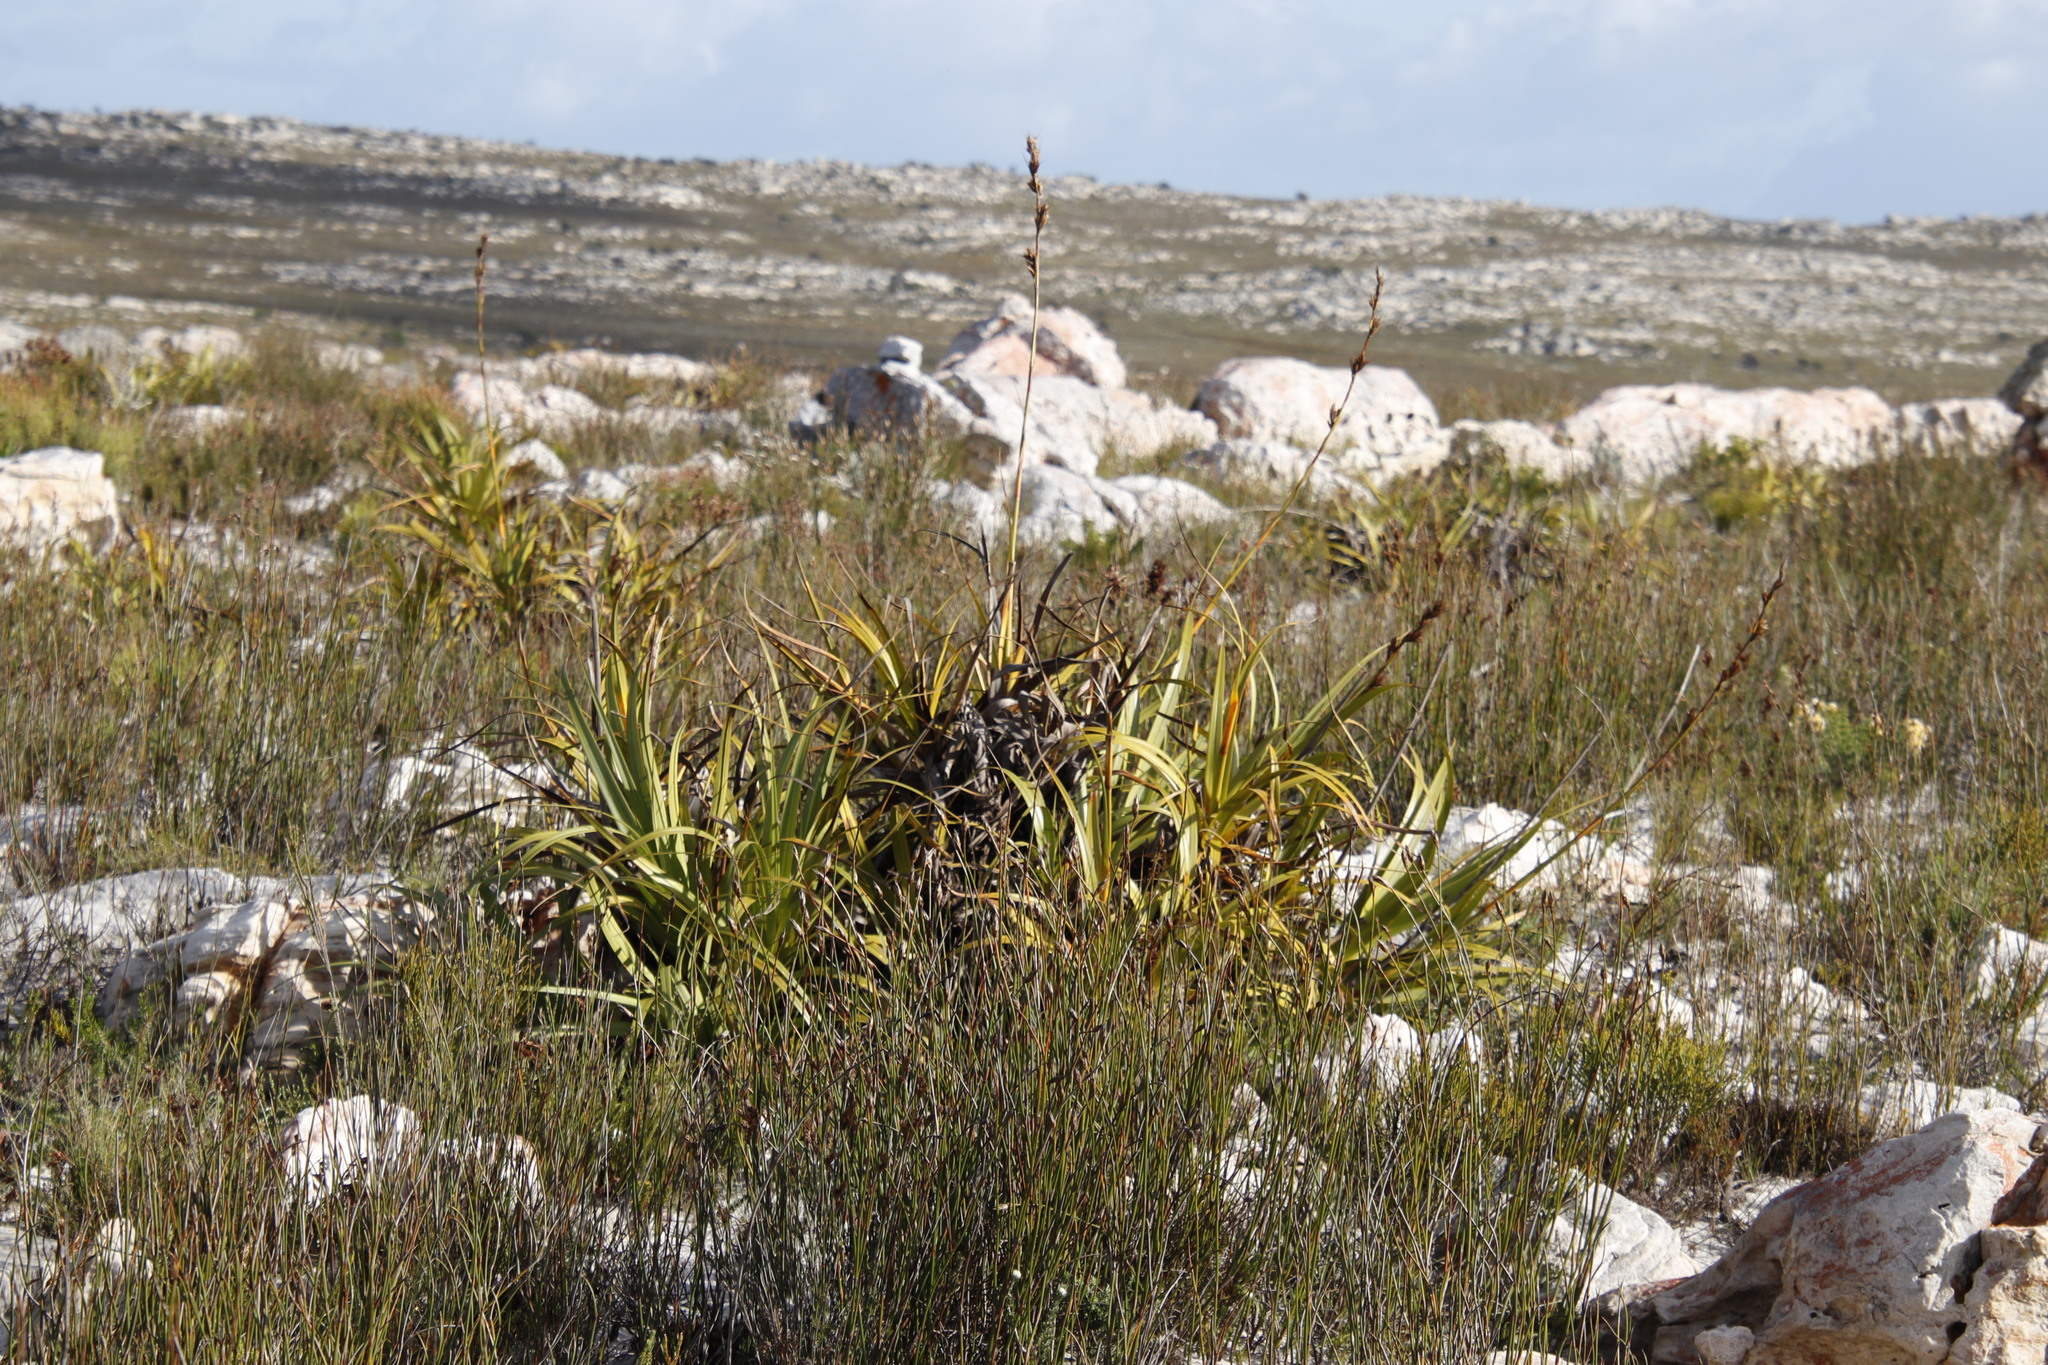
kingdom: Plantae
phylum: Tracheophyta
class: Liliopsida
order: Poales
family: Cyperaceae
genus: Tetraria
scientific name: Tetraria thermalis
